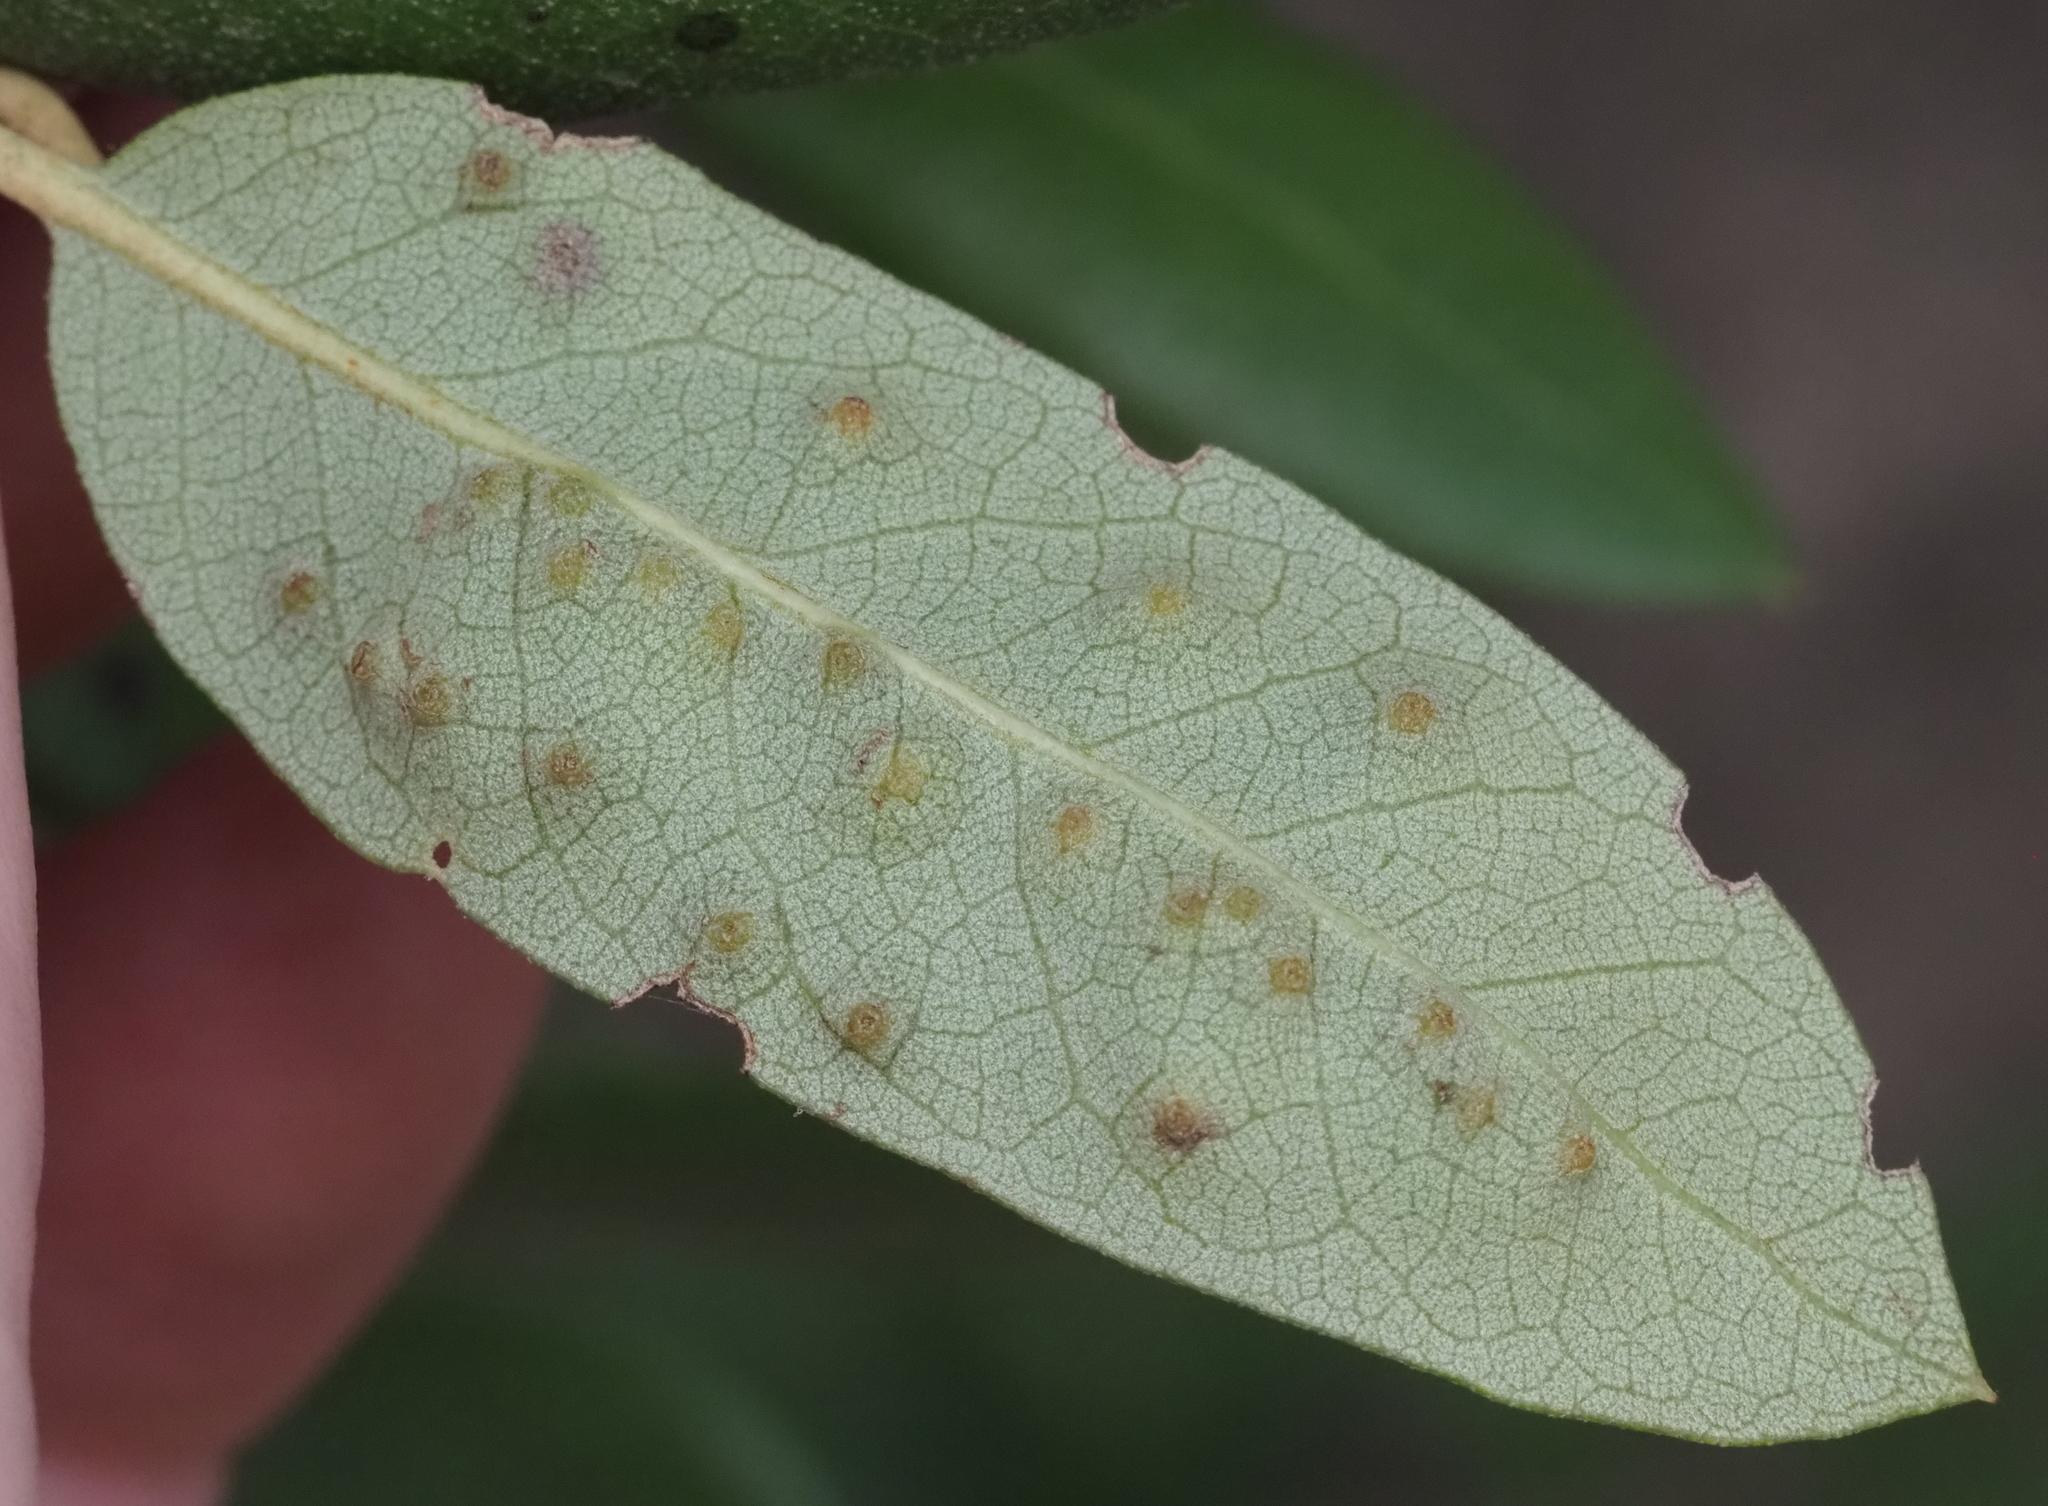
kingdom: Animalia
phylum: Arthropoda
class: Insecta
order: Hymenoptera
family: Cynipidae
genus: Neuroterus
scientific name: Neuroterus
